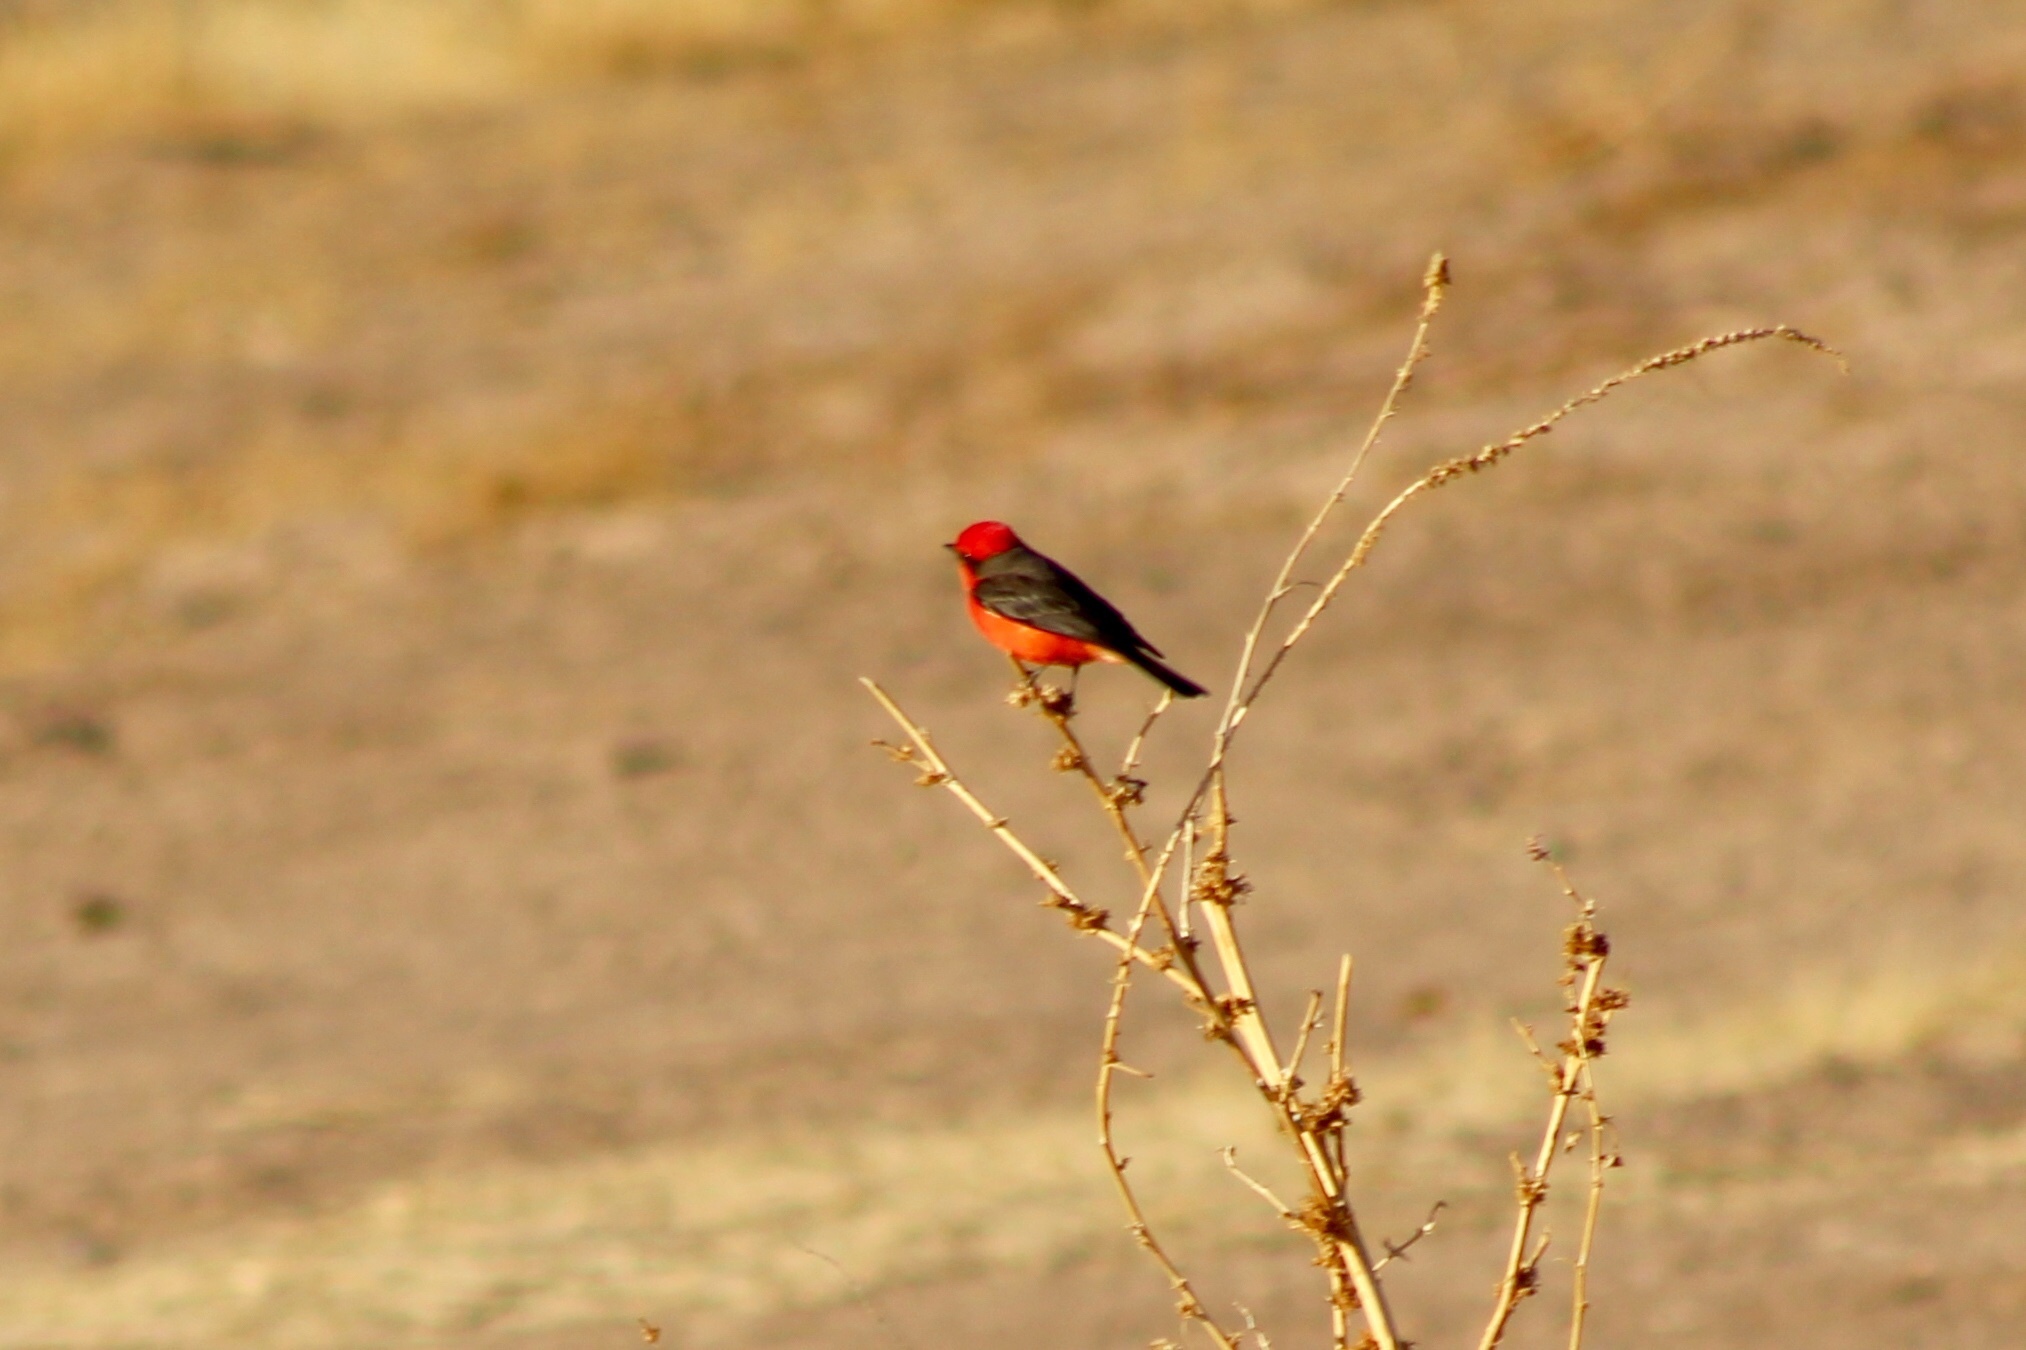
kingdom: Animalia
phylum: Chordata
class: Aves
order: Passeriformes
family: Tyrannidae
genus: Pyrocephalus
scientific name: Pyrocephalus rubinus
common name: Vermilion flycatcher
